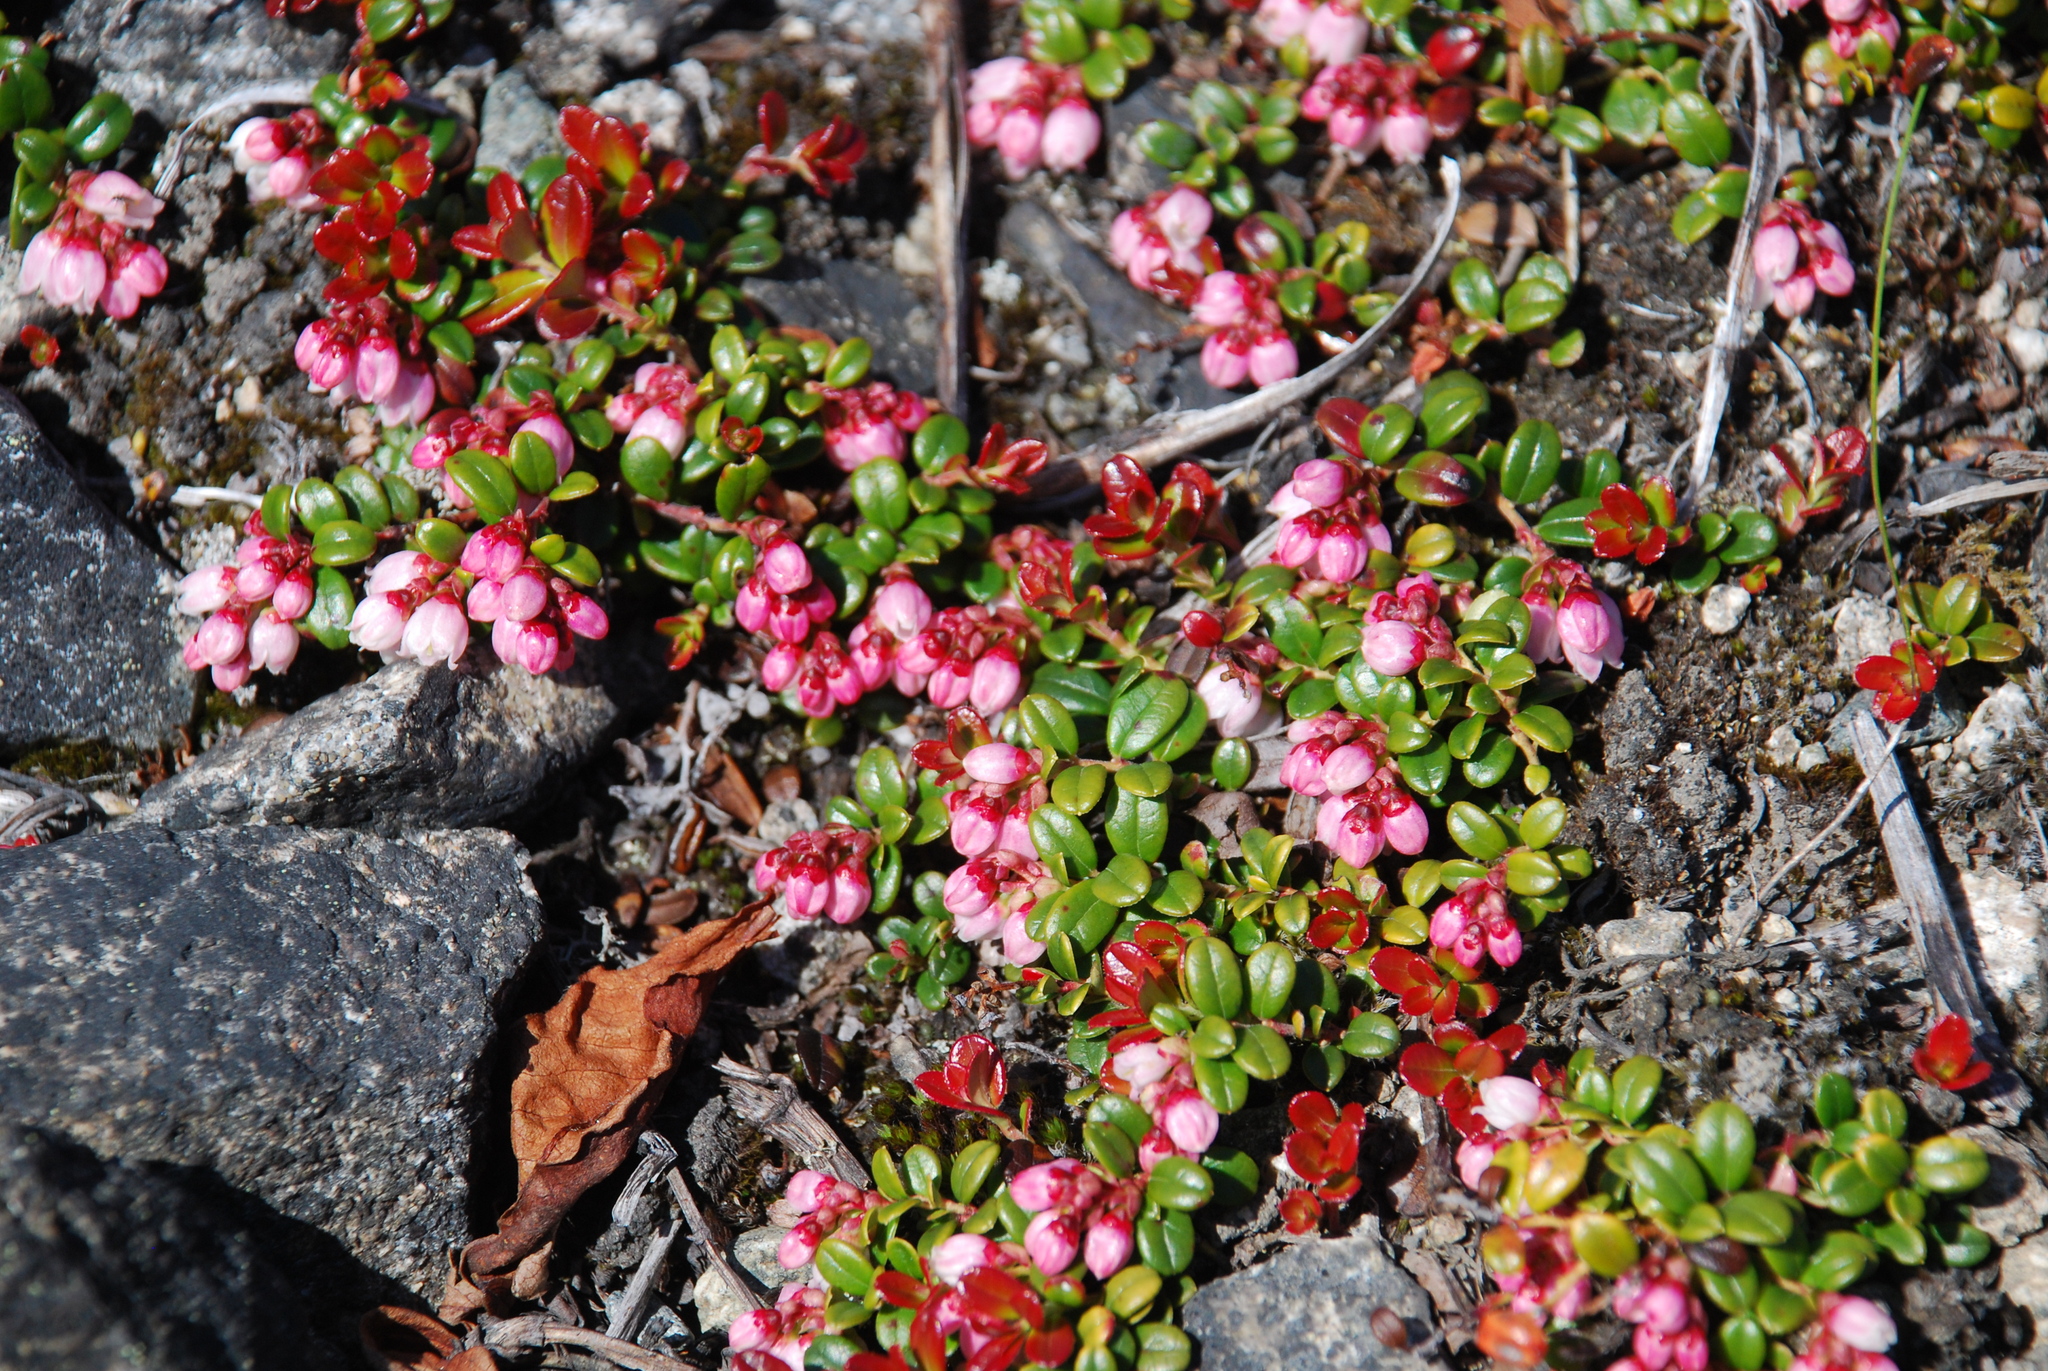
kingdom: Plantae
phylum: Tracheophyta
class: Magnoliopsida
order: Ericales
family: Ericaceae
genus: Vaccinium
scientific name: Vaccinium vitis-idaea
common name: Cowberry
